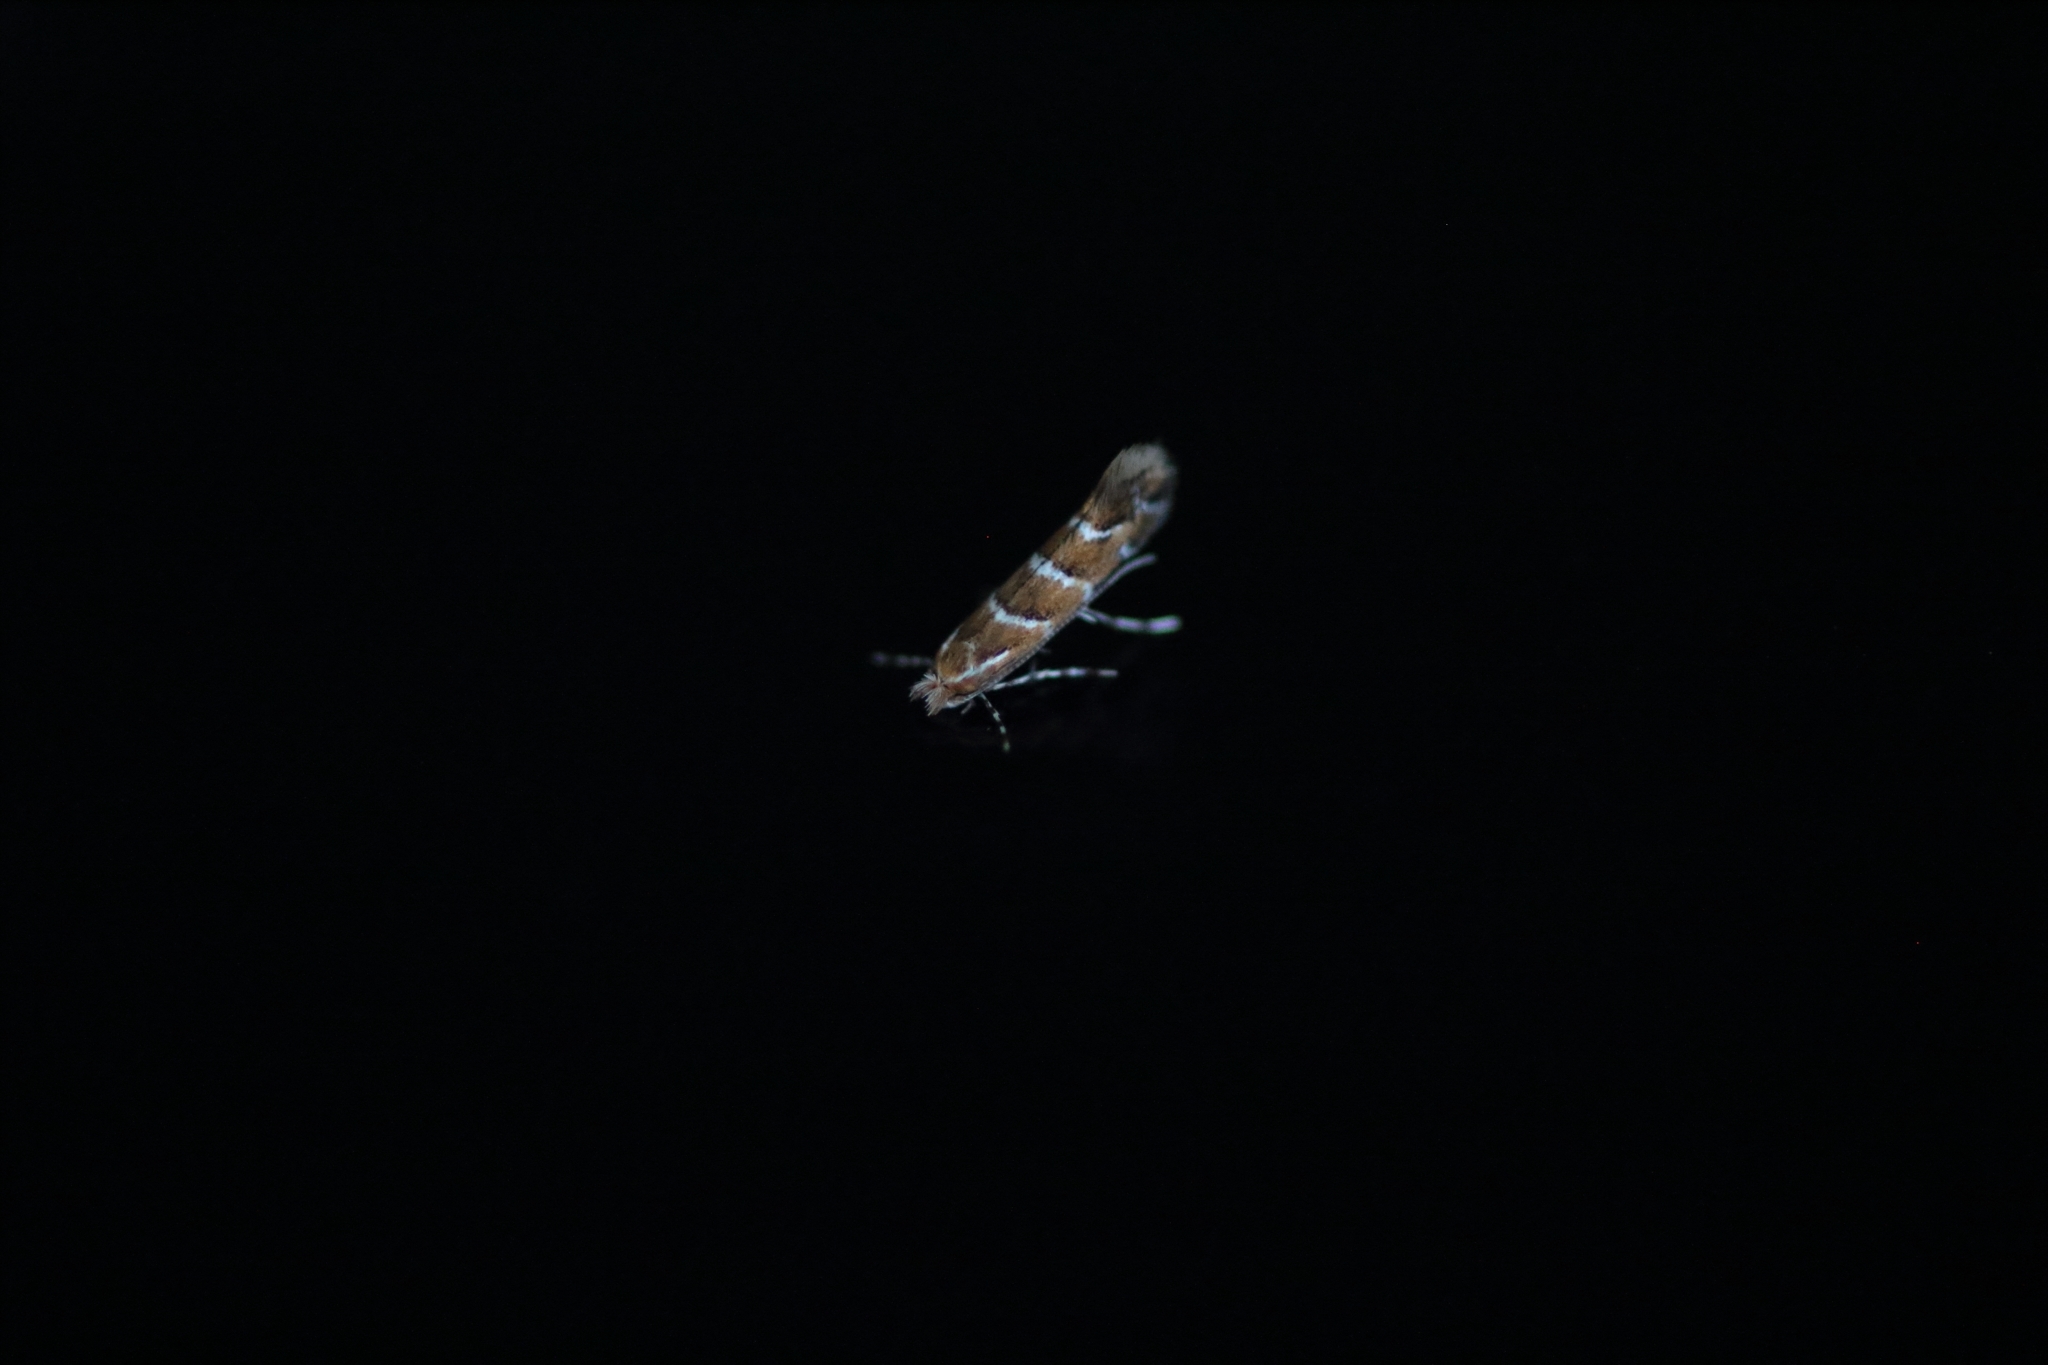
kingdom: Animalia
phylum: Arthropoda
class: Insecta
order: Lepidoptera
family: Gracillariidae
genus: Cameraria
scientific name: Cameraria ohridella
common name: Horse-chestnut leaf-miner
